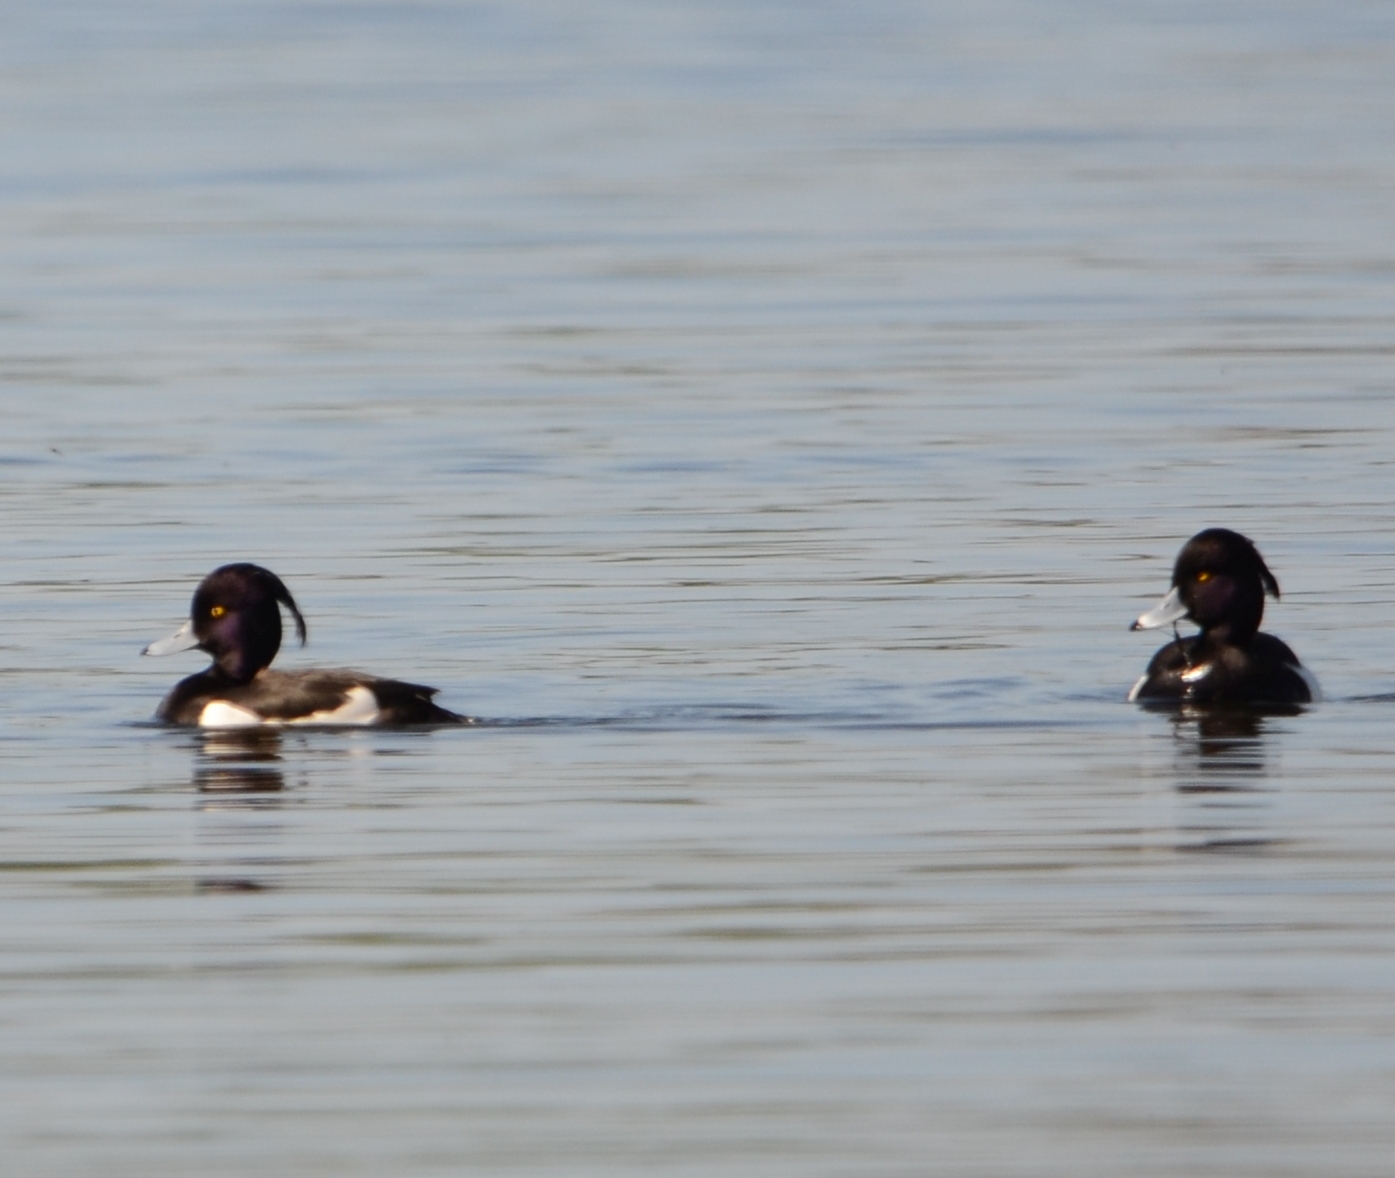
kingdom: Animalia
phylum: Chordata
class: Aves
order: Anseriformes
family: Anatidae
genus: Aythya
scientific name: Aythya fuligula
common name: Tufted duck
